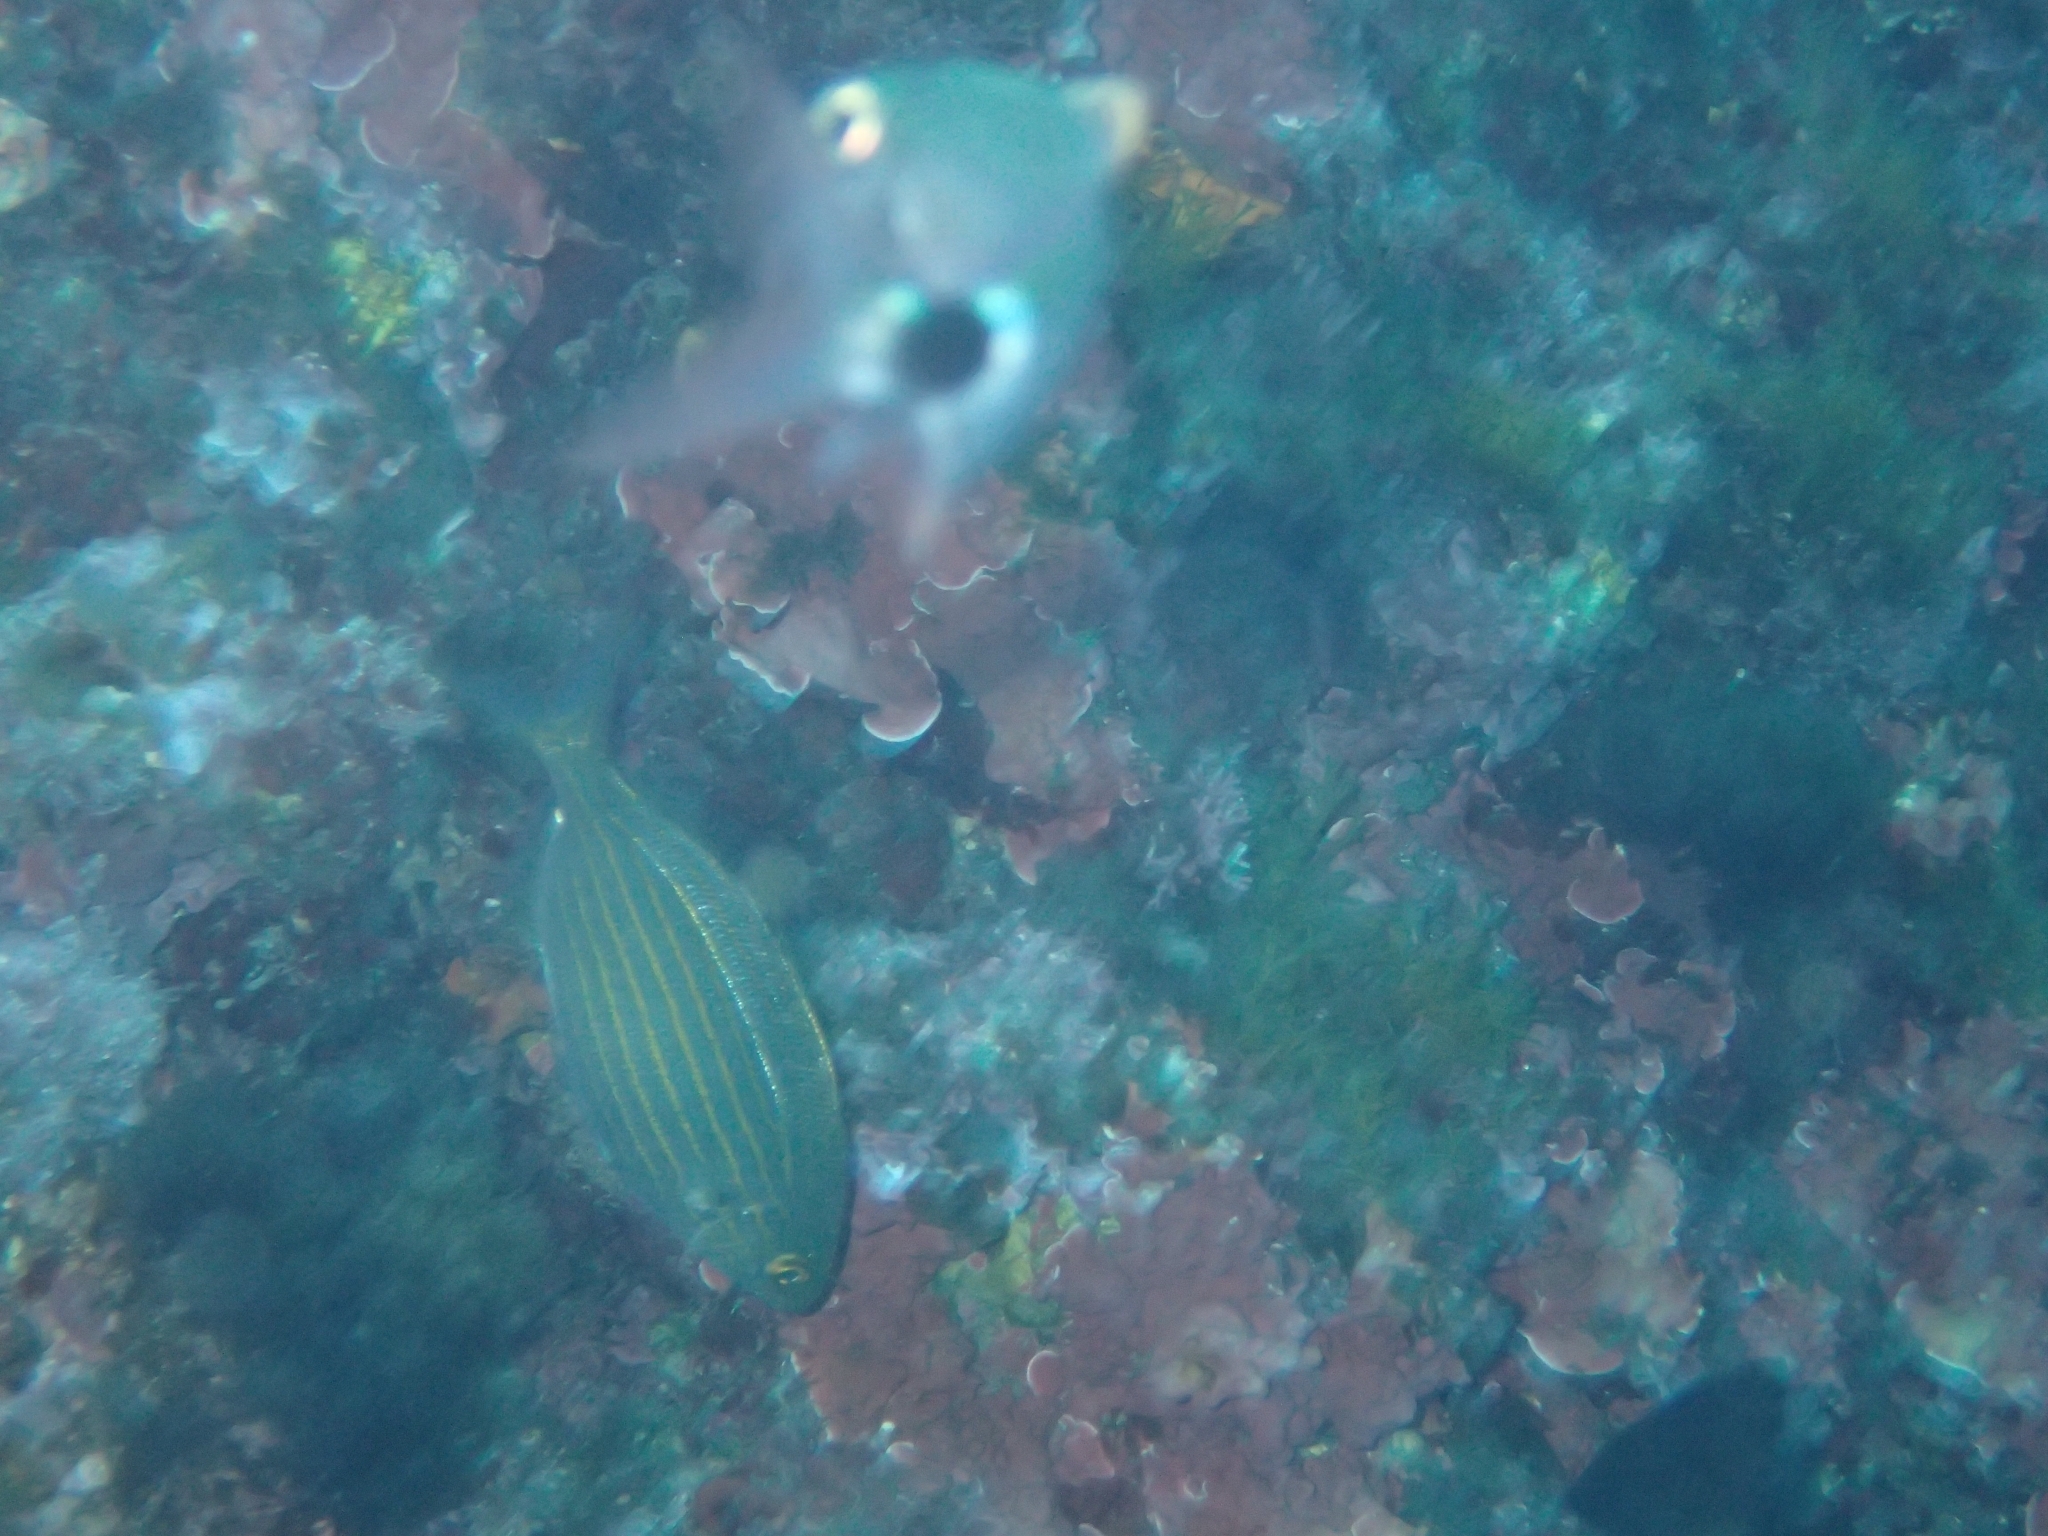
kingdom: Animalia
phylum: Chordata
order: Perciformes
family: Sparidae
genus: Sarpa
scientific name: Sarpa salpa
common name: Salema
